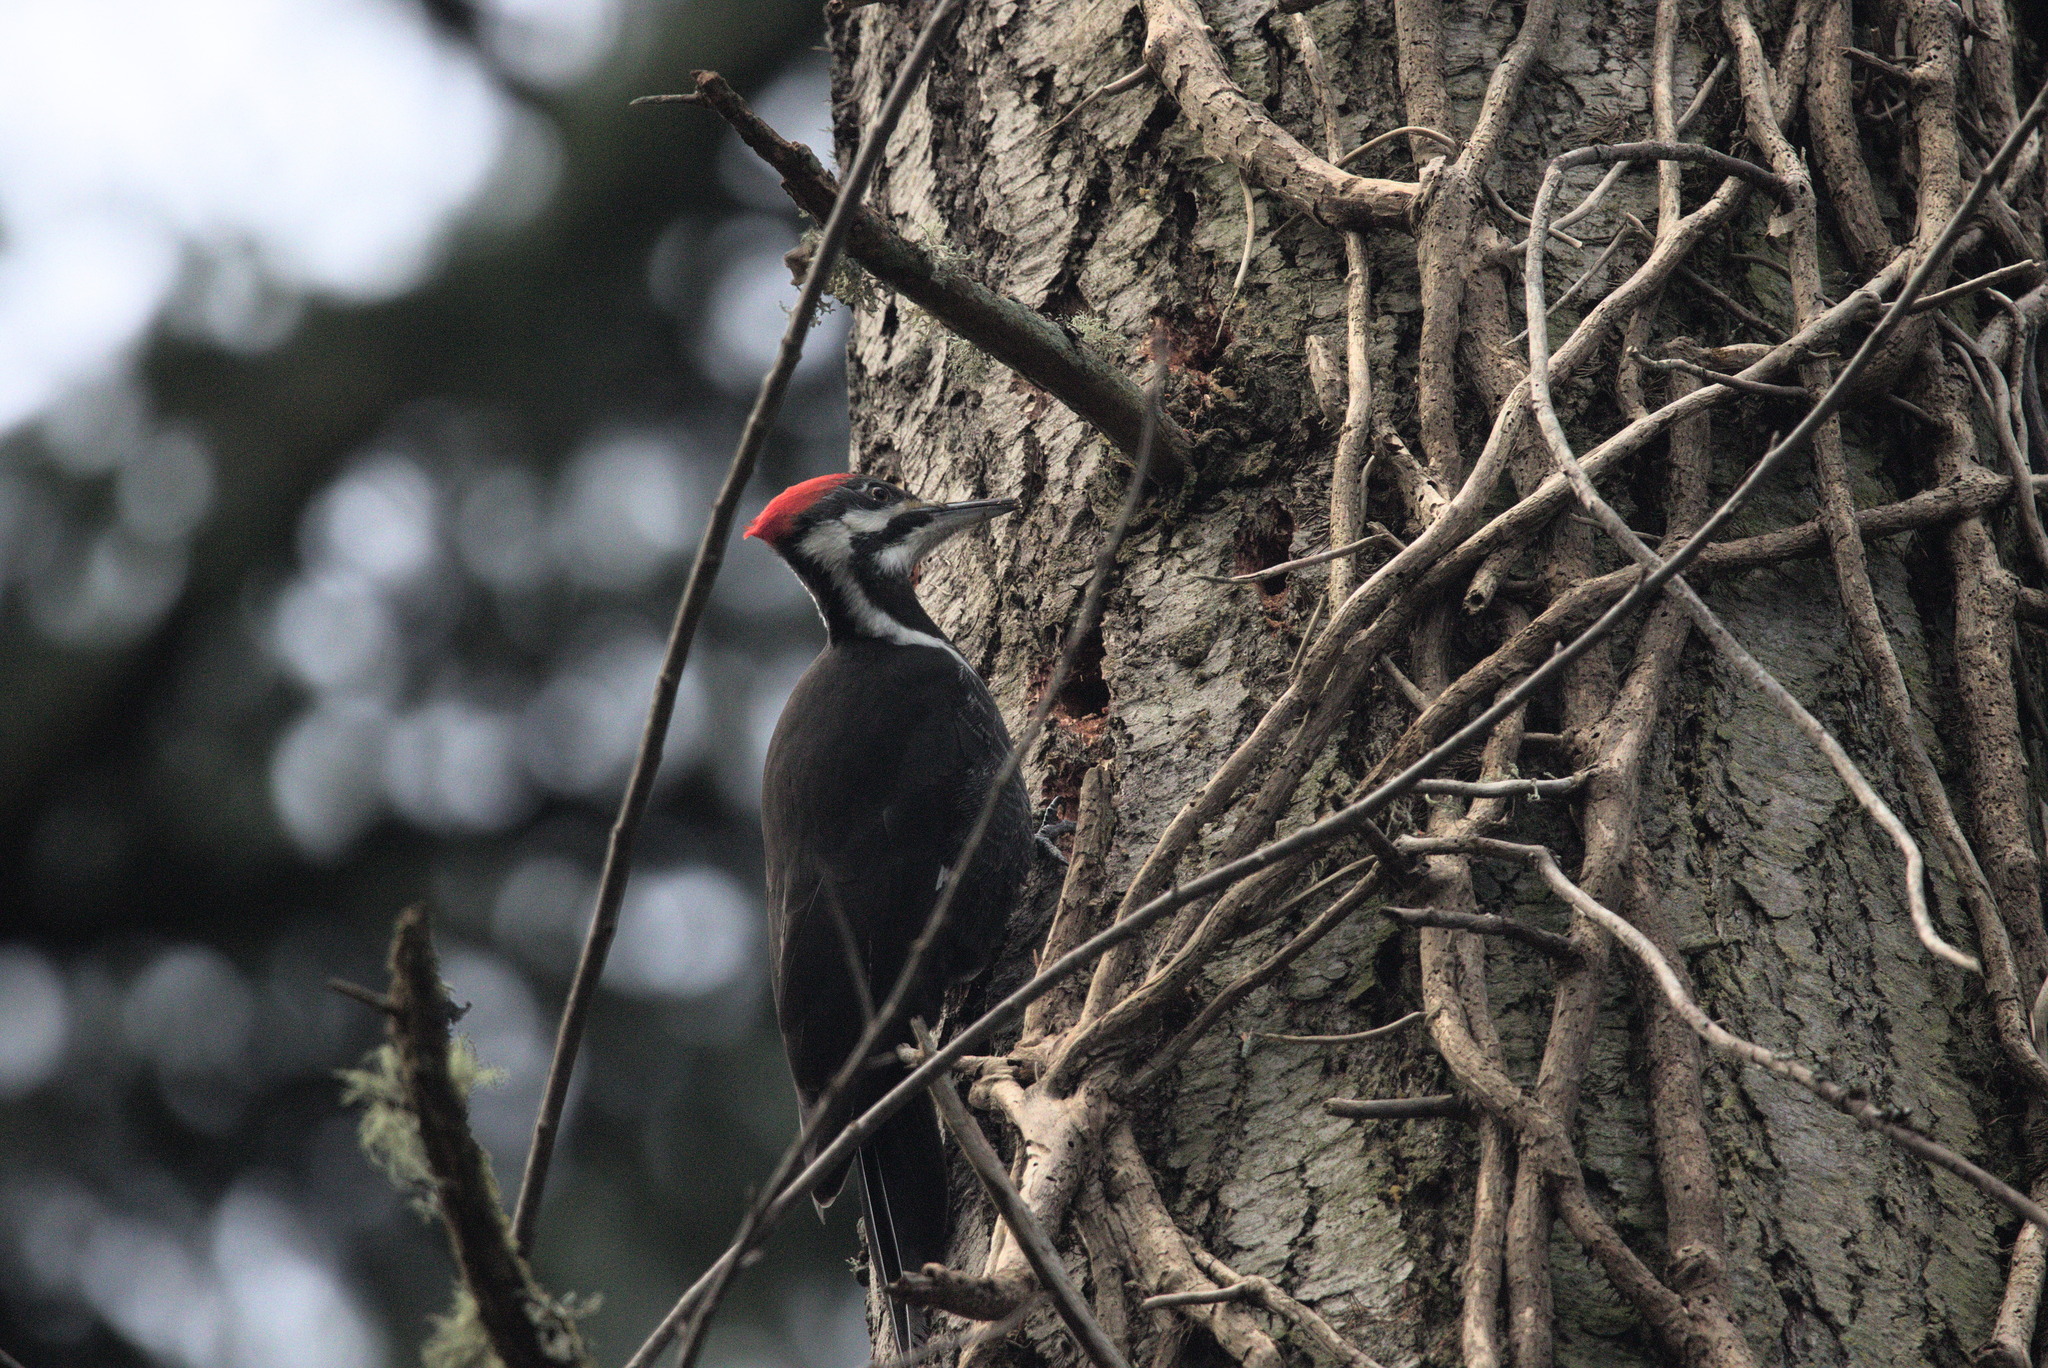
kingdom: Animalia
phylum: Chordata
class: Aves
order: Piciformes
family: Picidae
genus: Dryocopus
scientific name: Dryocopus pileatus
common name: Pileated woodpecker
